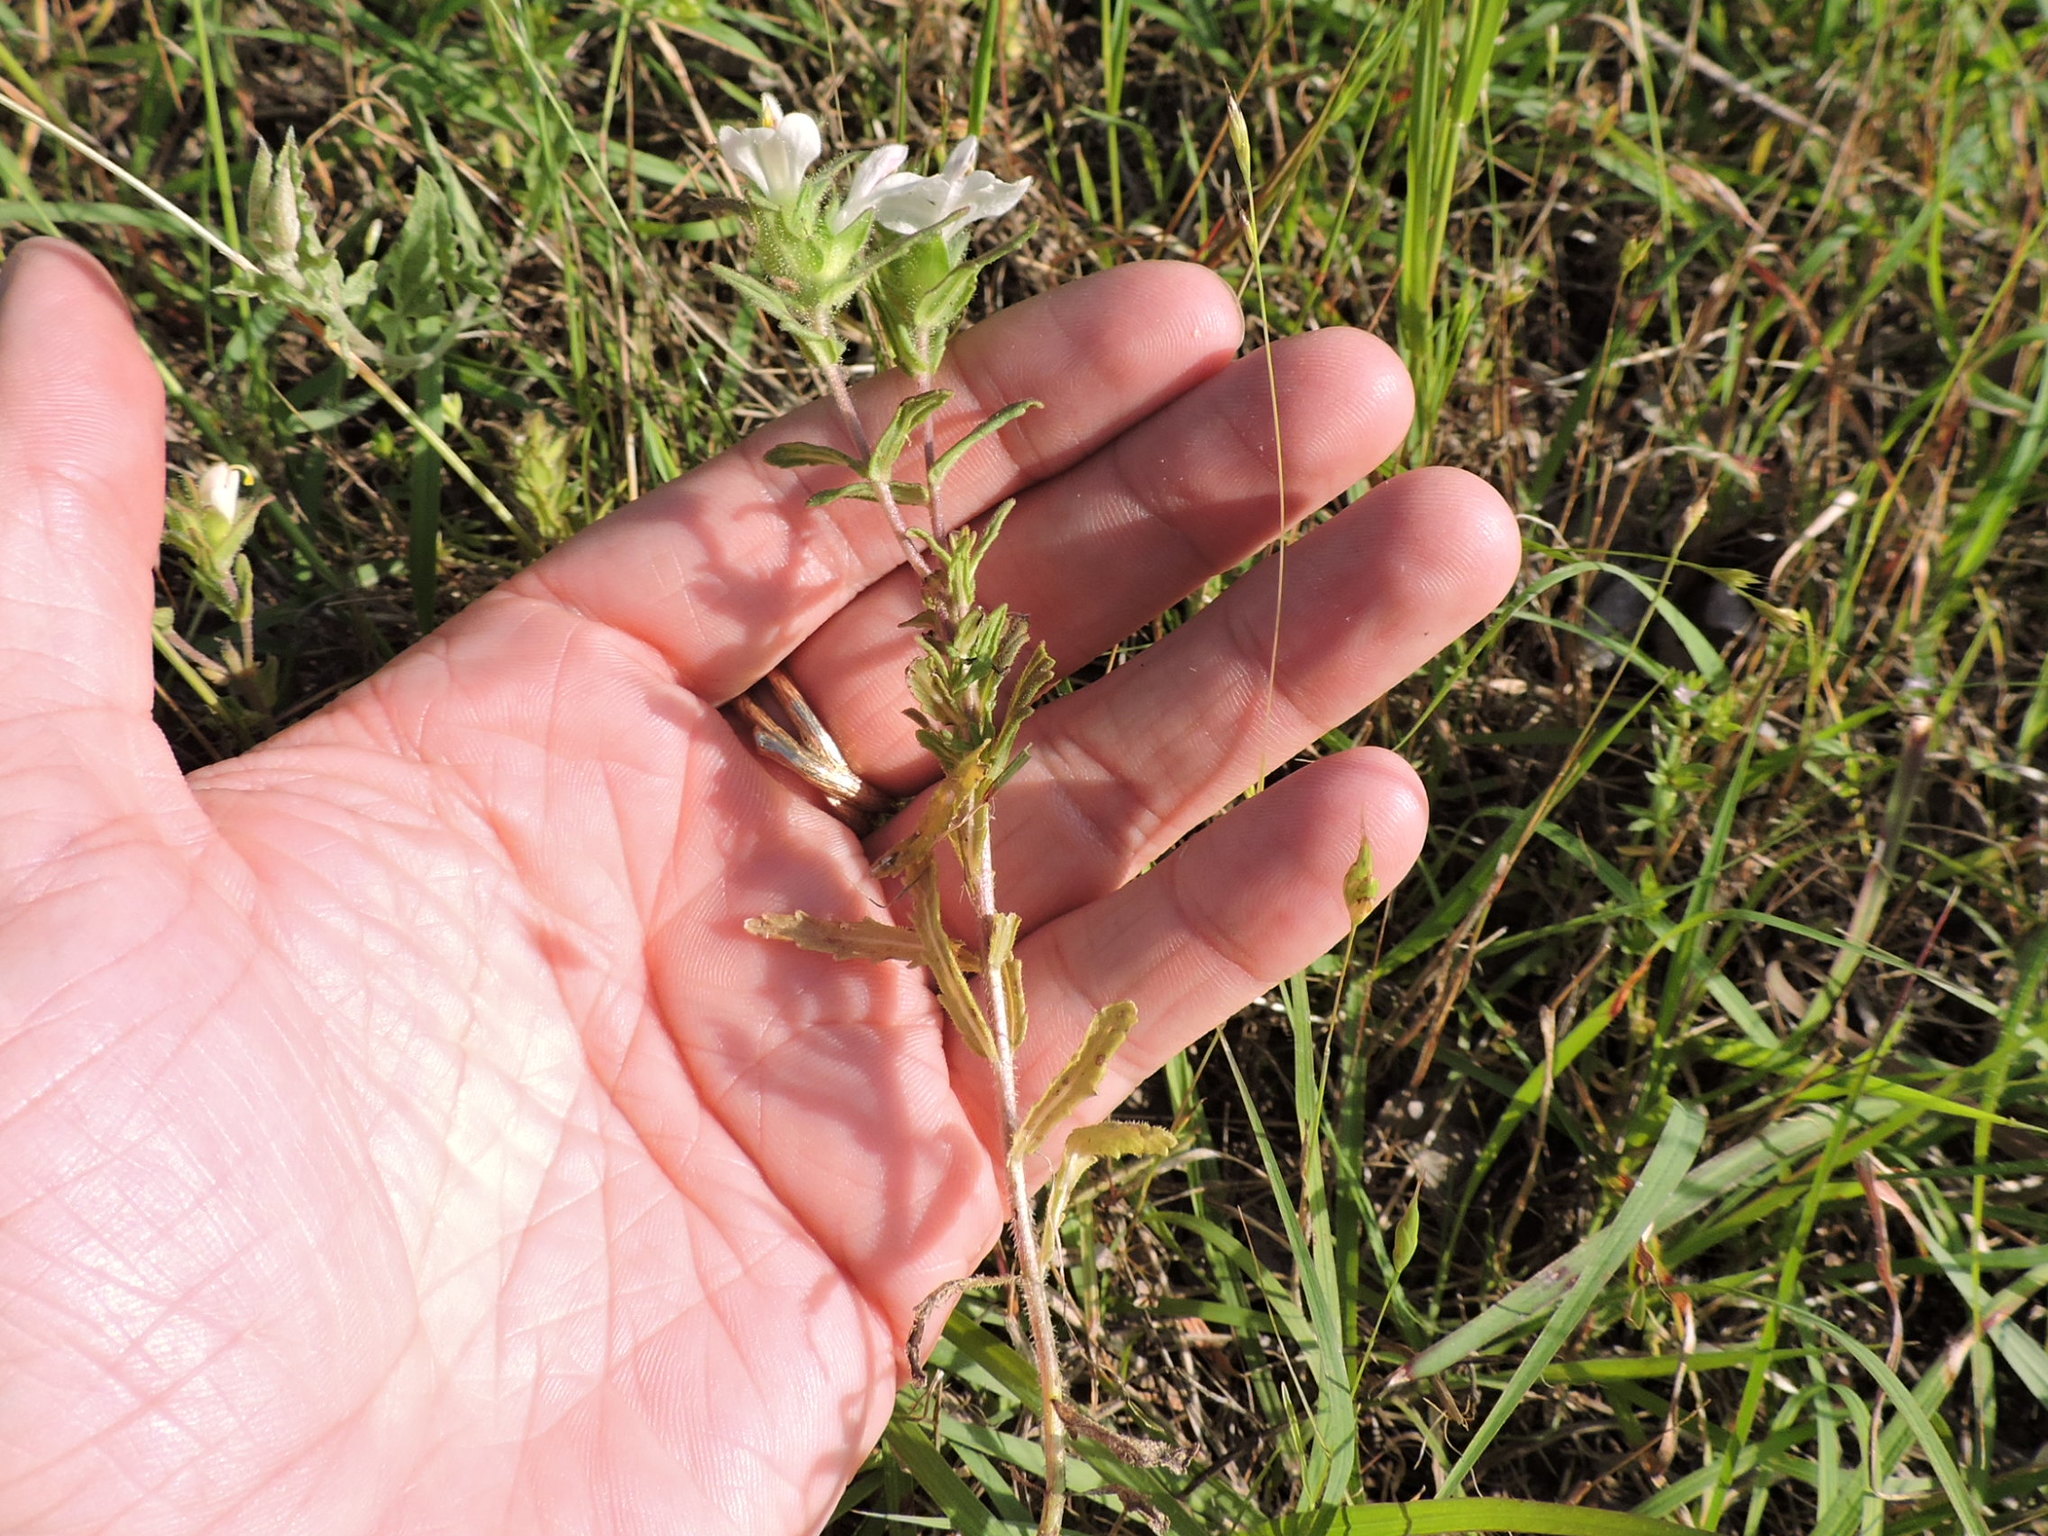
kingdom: Plantae
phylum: Tracheophyta
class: Magnoliopsida
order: Lamiales
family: Orobanchaceae
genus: Bellardia
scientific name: Bellardia trixago
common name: Mediterranean lineseed
